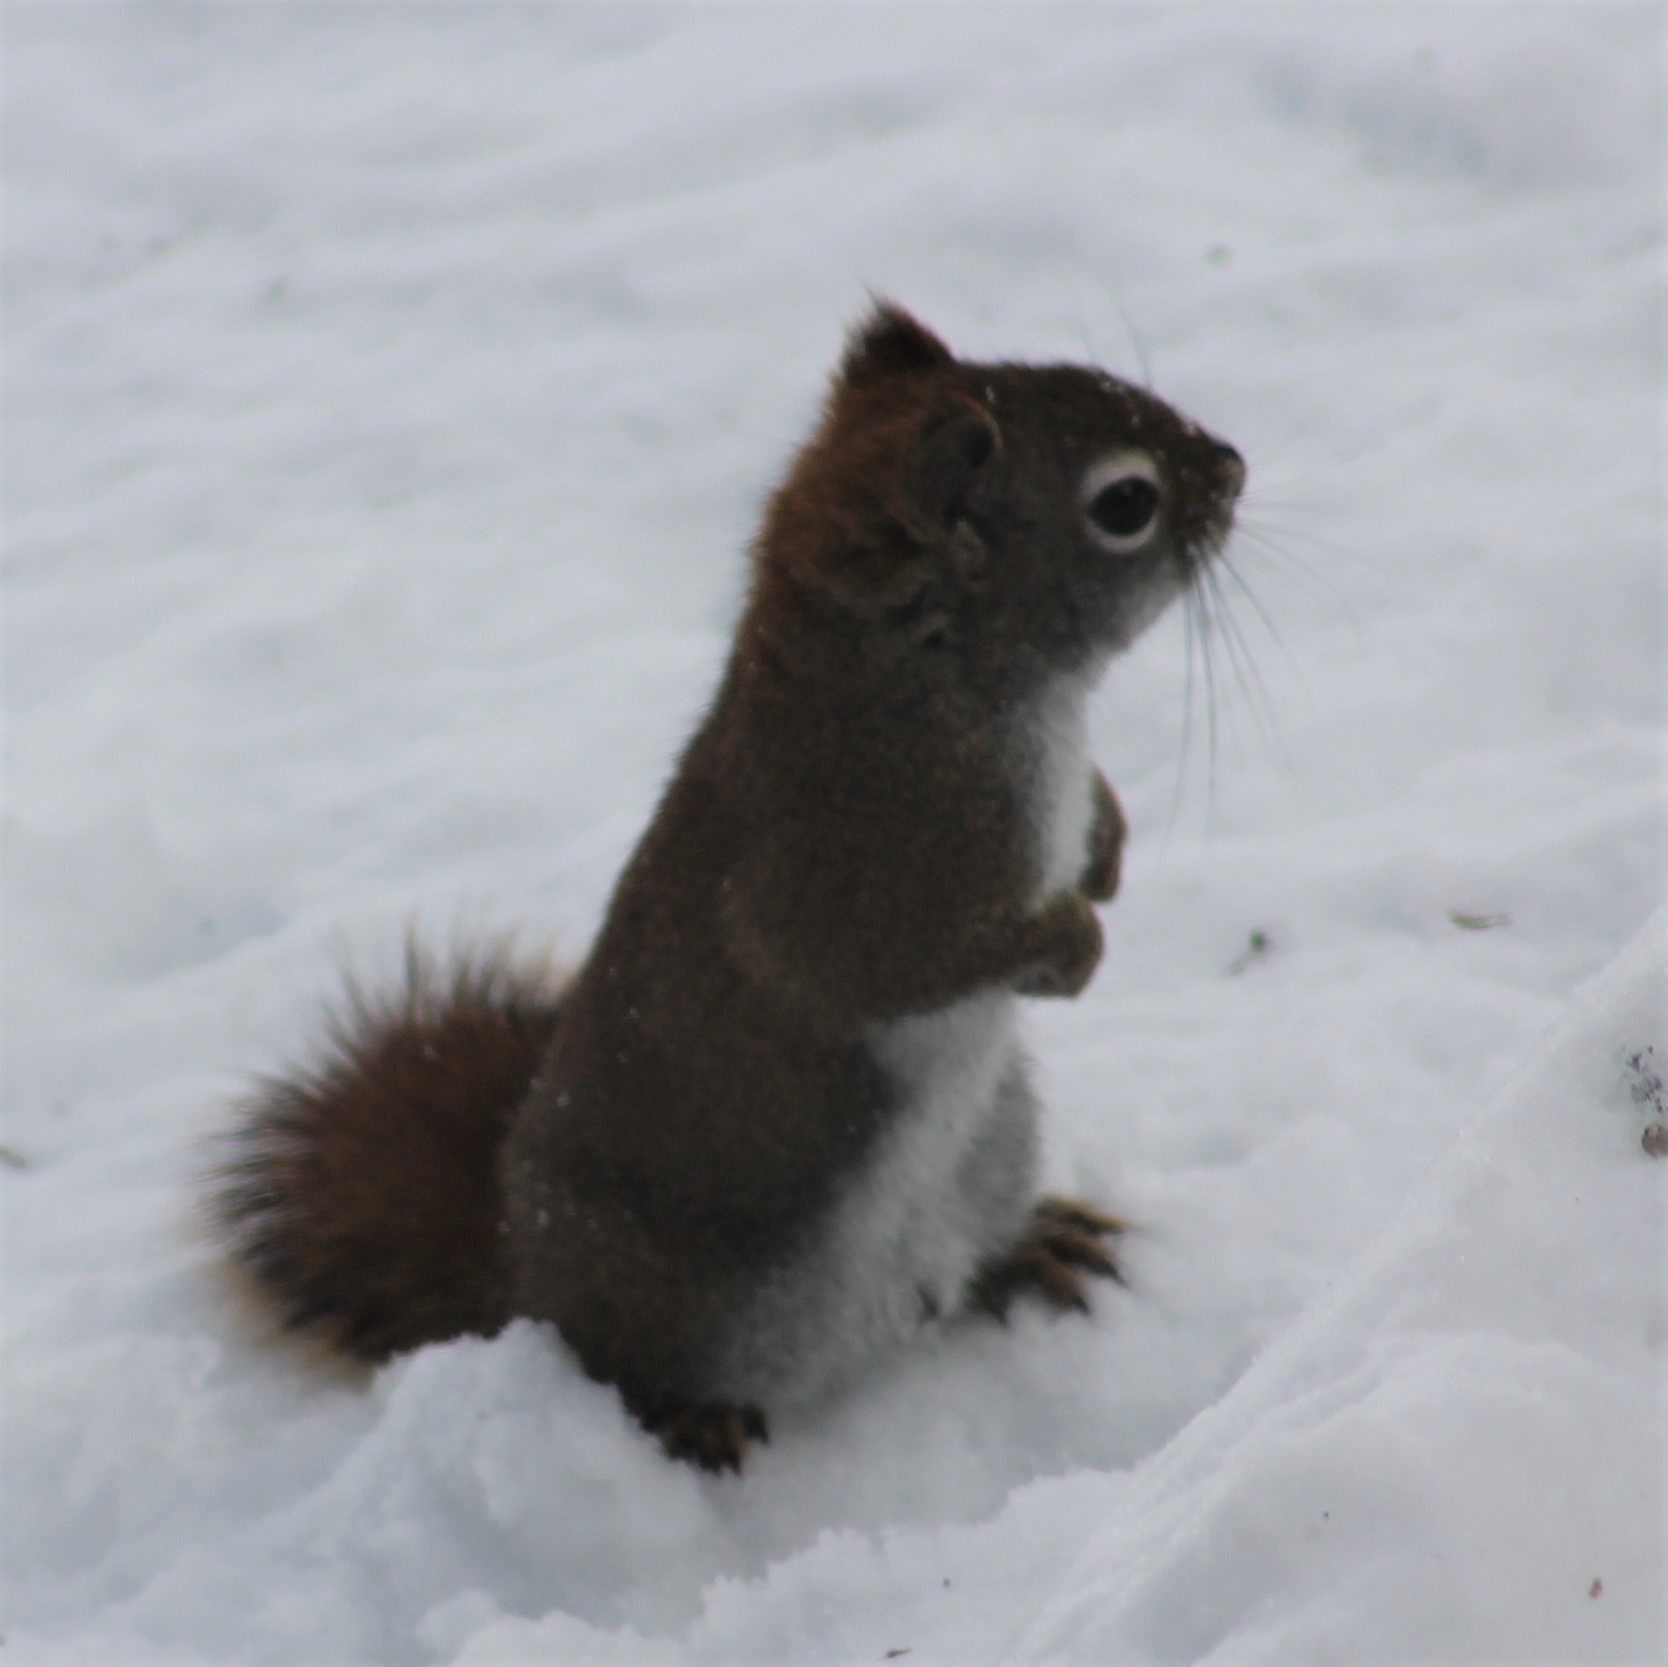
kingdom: Animalia
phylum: Chordata
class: Mammalia
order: Rodentia
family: Sciuridae
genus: Tamiasciurus
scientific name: Tamiasciurus hudsonicus
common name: Red squirrel
